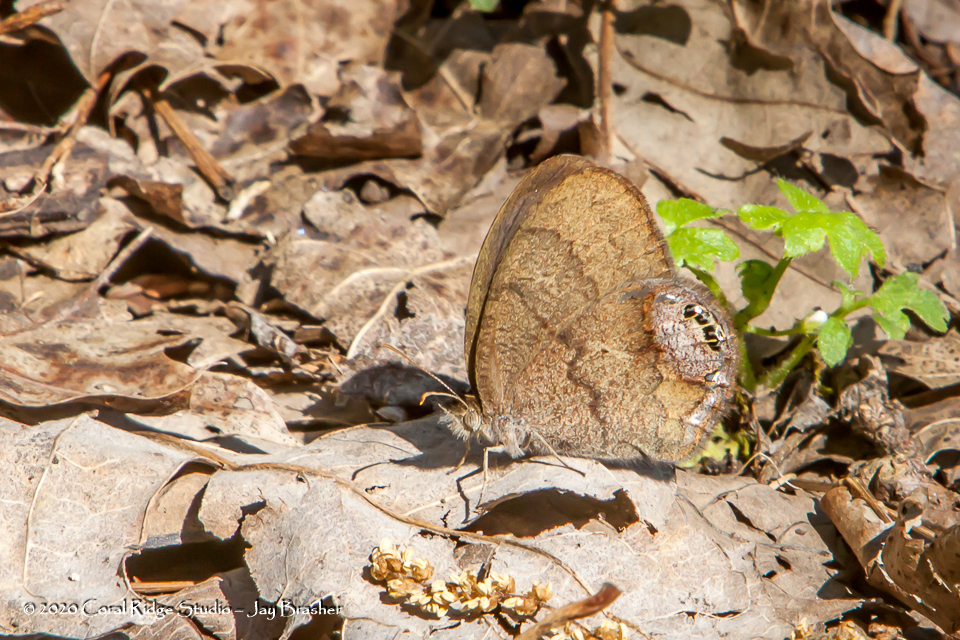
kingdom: Animalia
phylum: Arthropoda
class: Insecta
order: Lepidoptera
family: Nymphalidae
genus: Euptychia
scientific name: Euptychia cornelius
